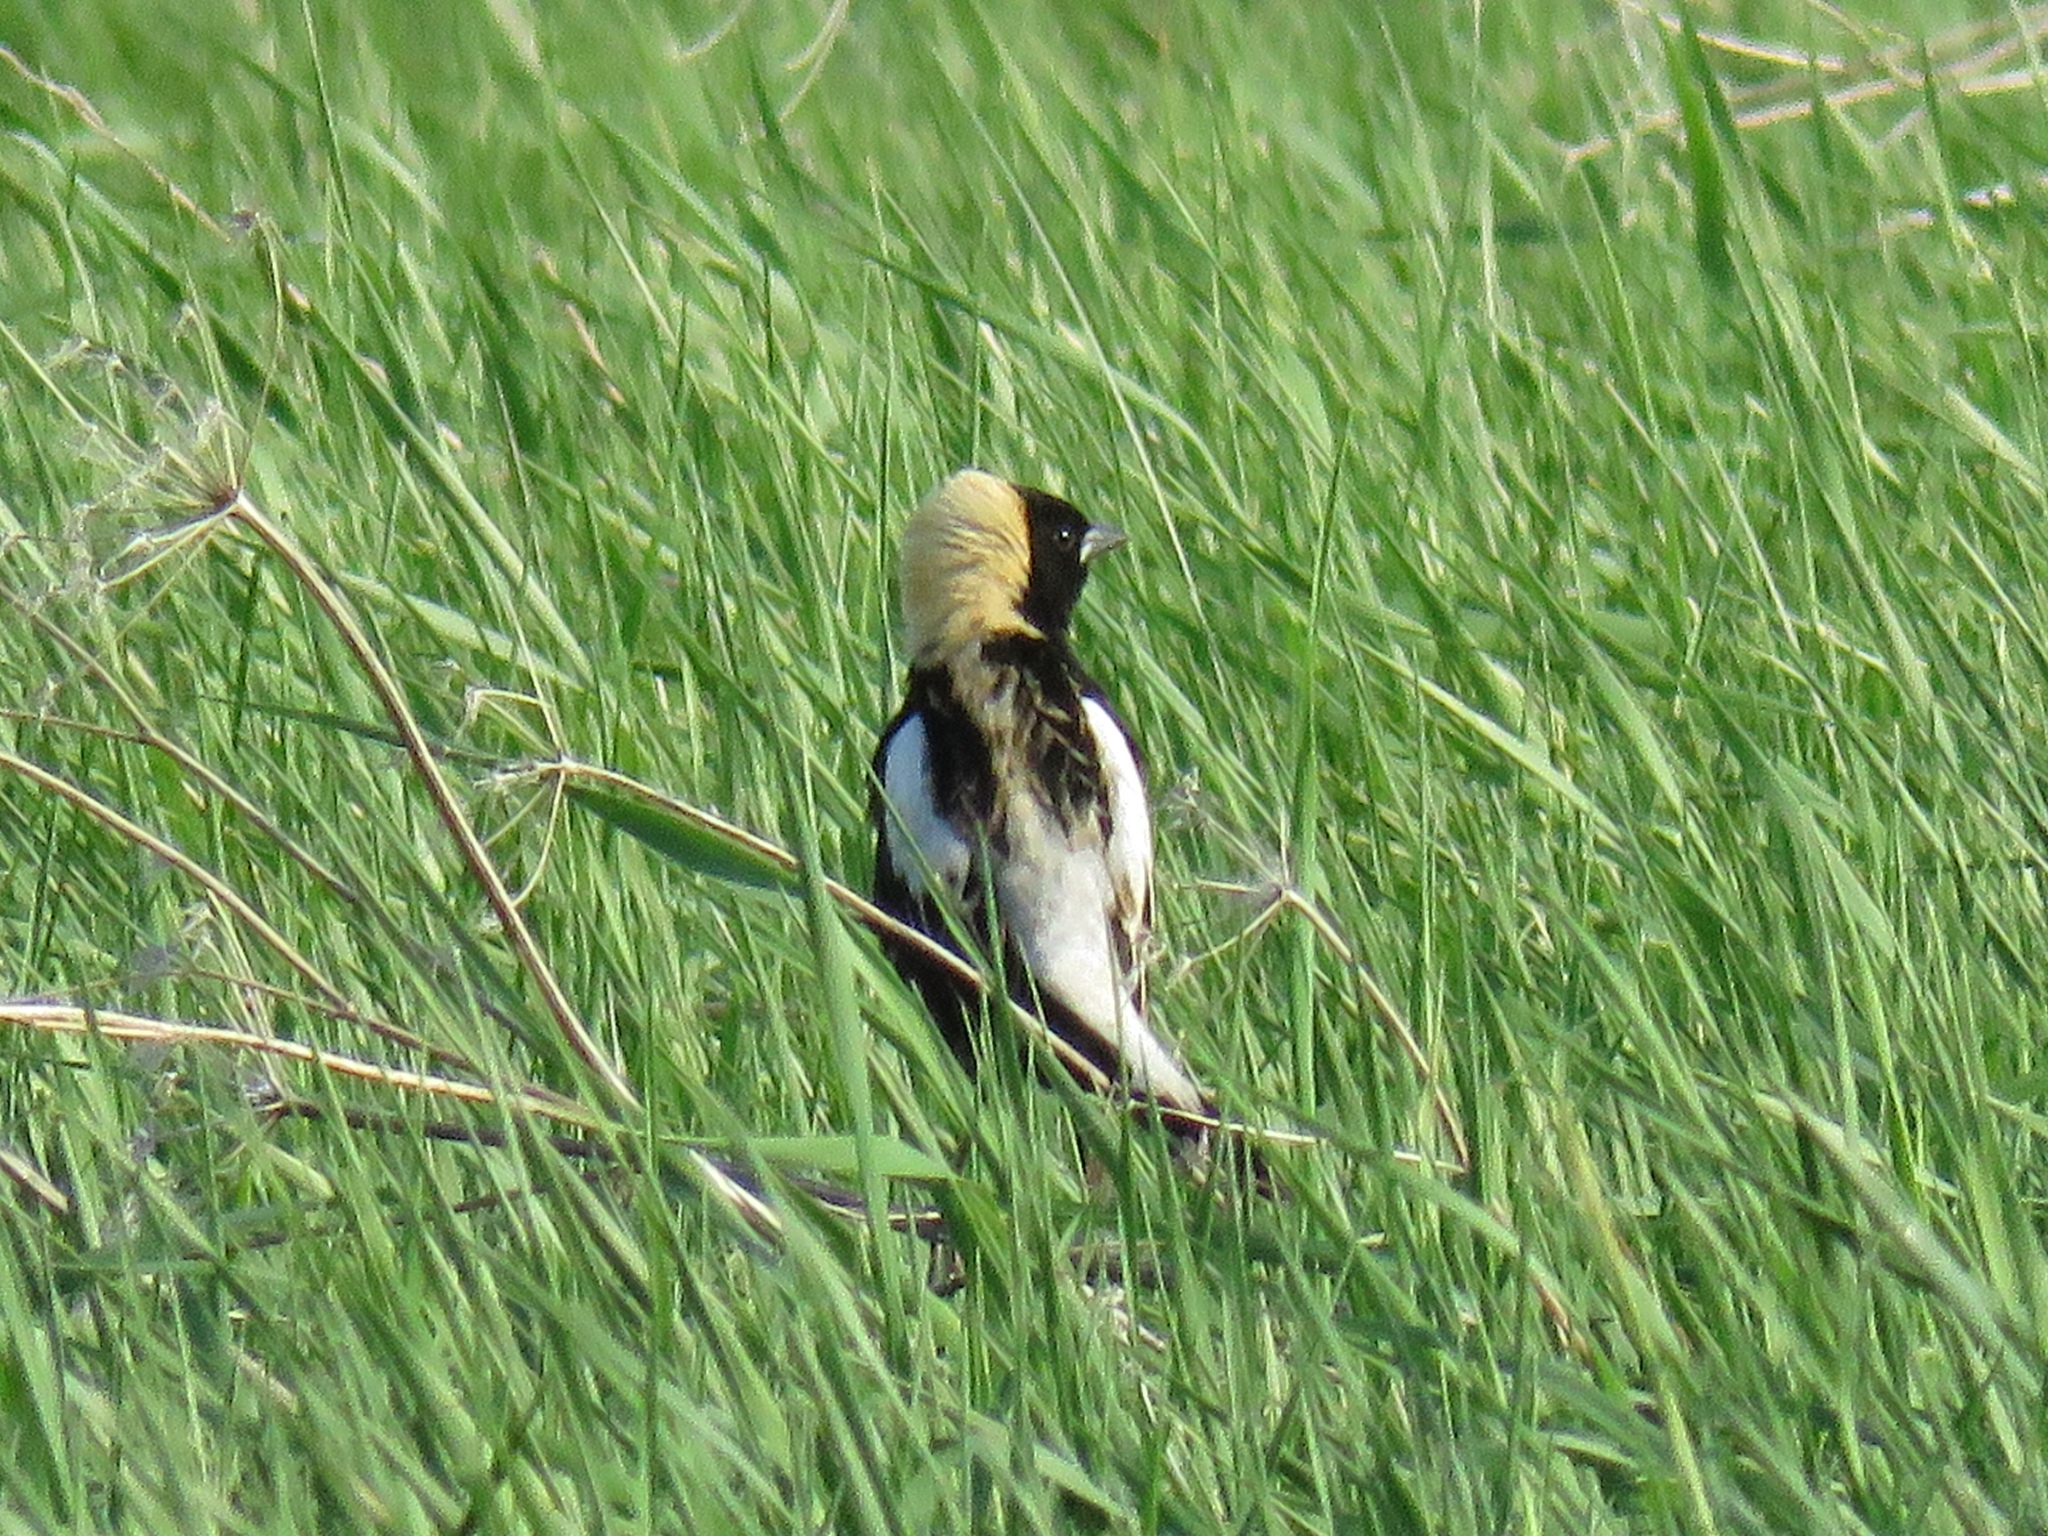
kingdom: Animalia
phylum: Chordata
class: Aves
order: Passeriformes
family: Icteridae
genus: Dolichonyx
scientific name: Dolichonyx oryzivorus
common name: Bobolink
